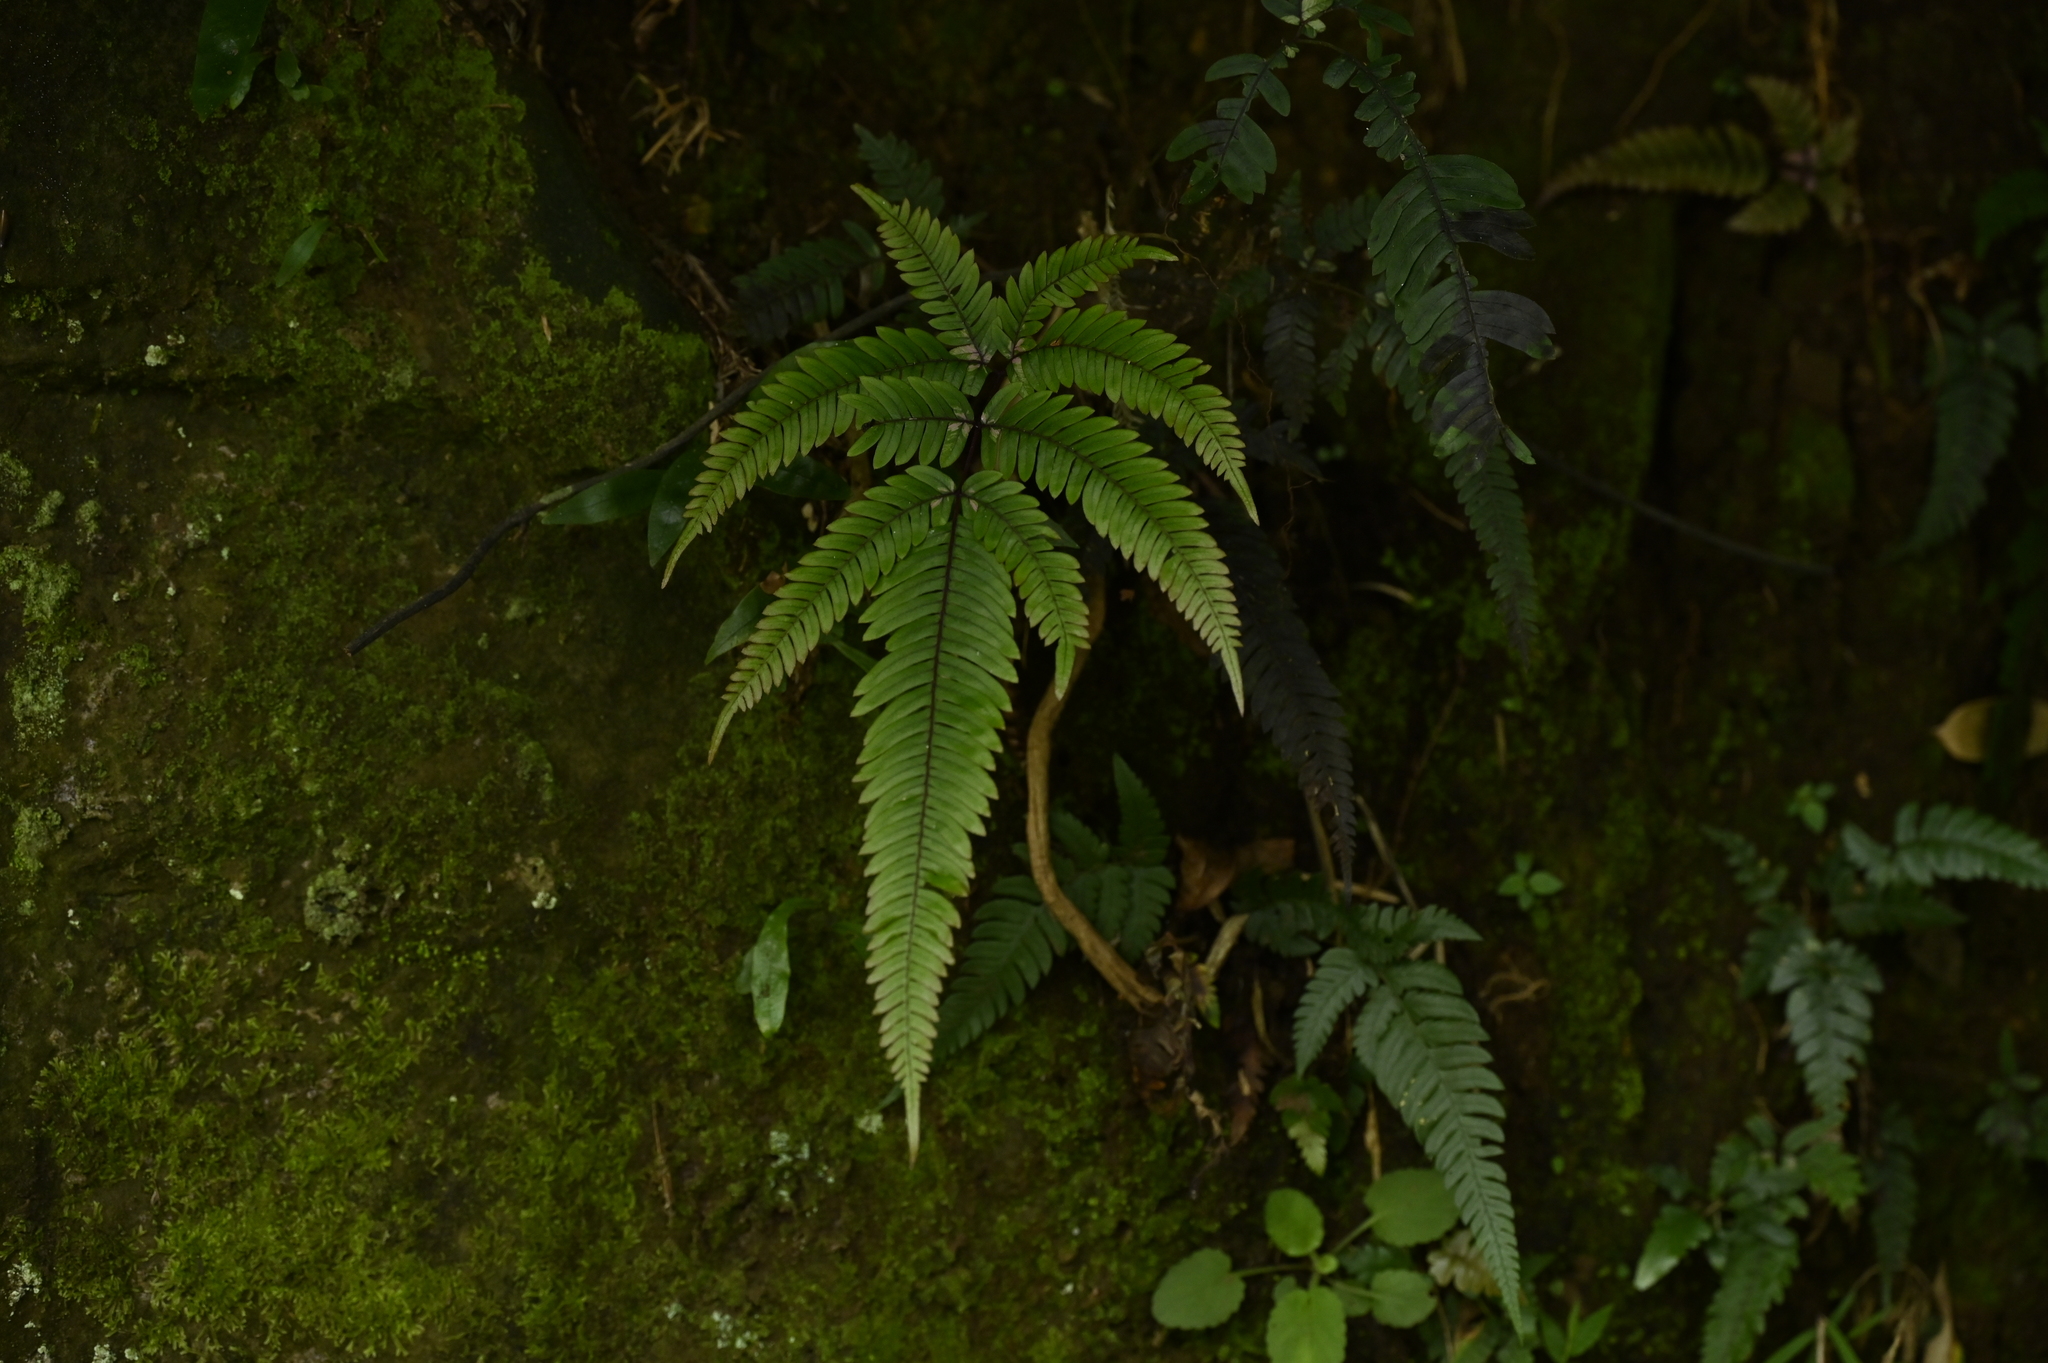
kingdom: Plantae
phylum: Tracheophyta
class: Polypodiopsida
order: Polypodiales
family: Pteridaceae
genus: Pteris
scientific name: Pteris normalis
